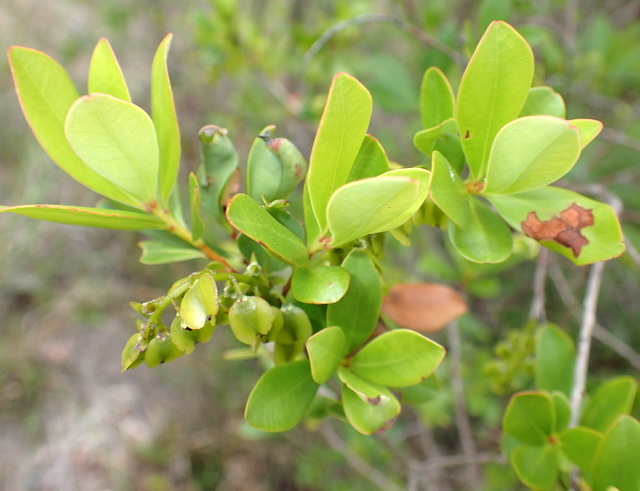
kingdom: Plantae
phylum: Tracheophyta
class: Magnoliopsida
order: Ericales
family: Cyrillaceae
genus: Cliftonia
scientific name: Cliftonia monophylla
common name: Titi
